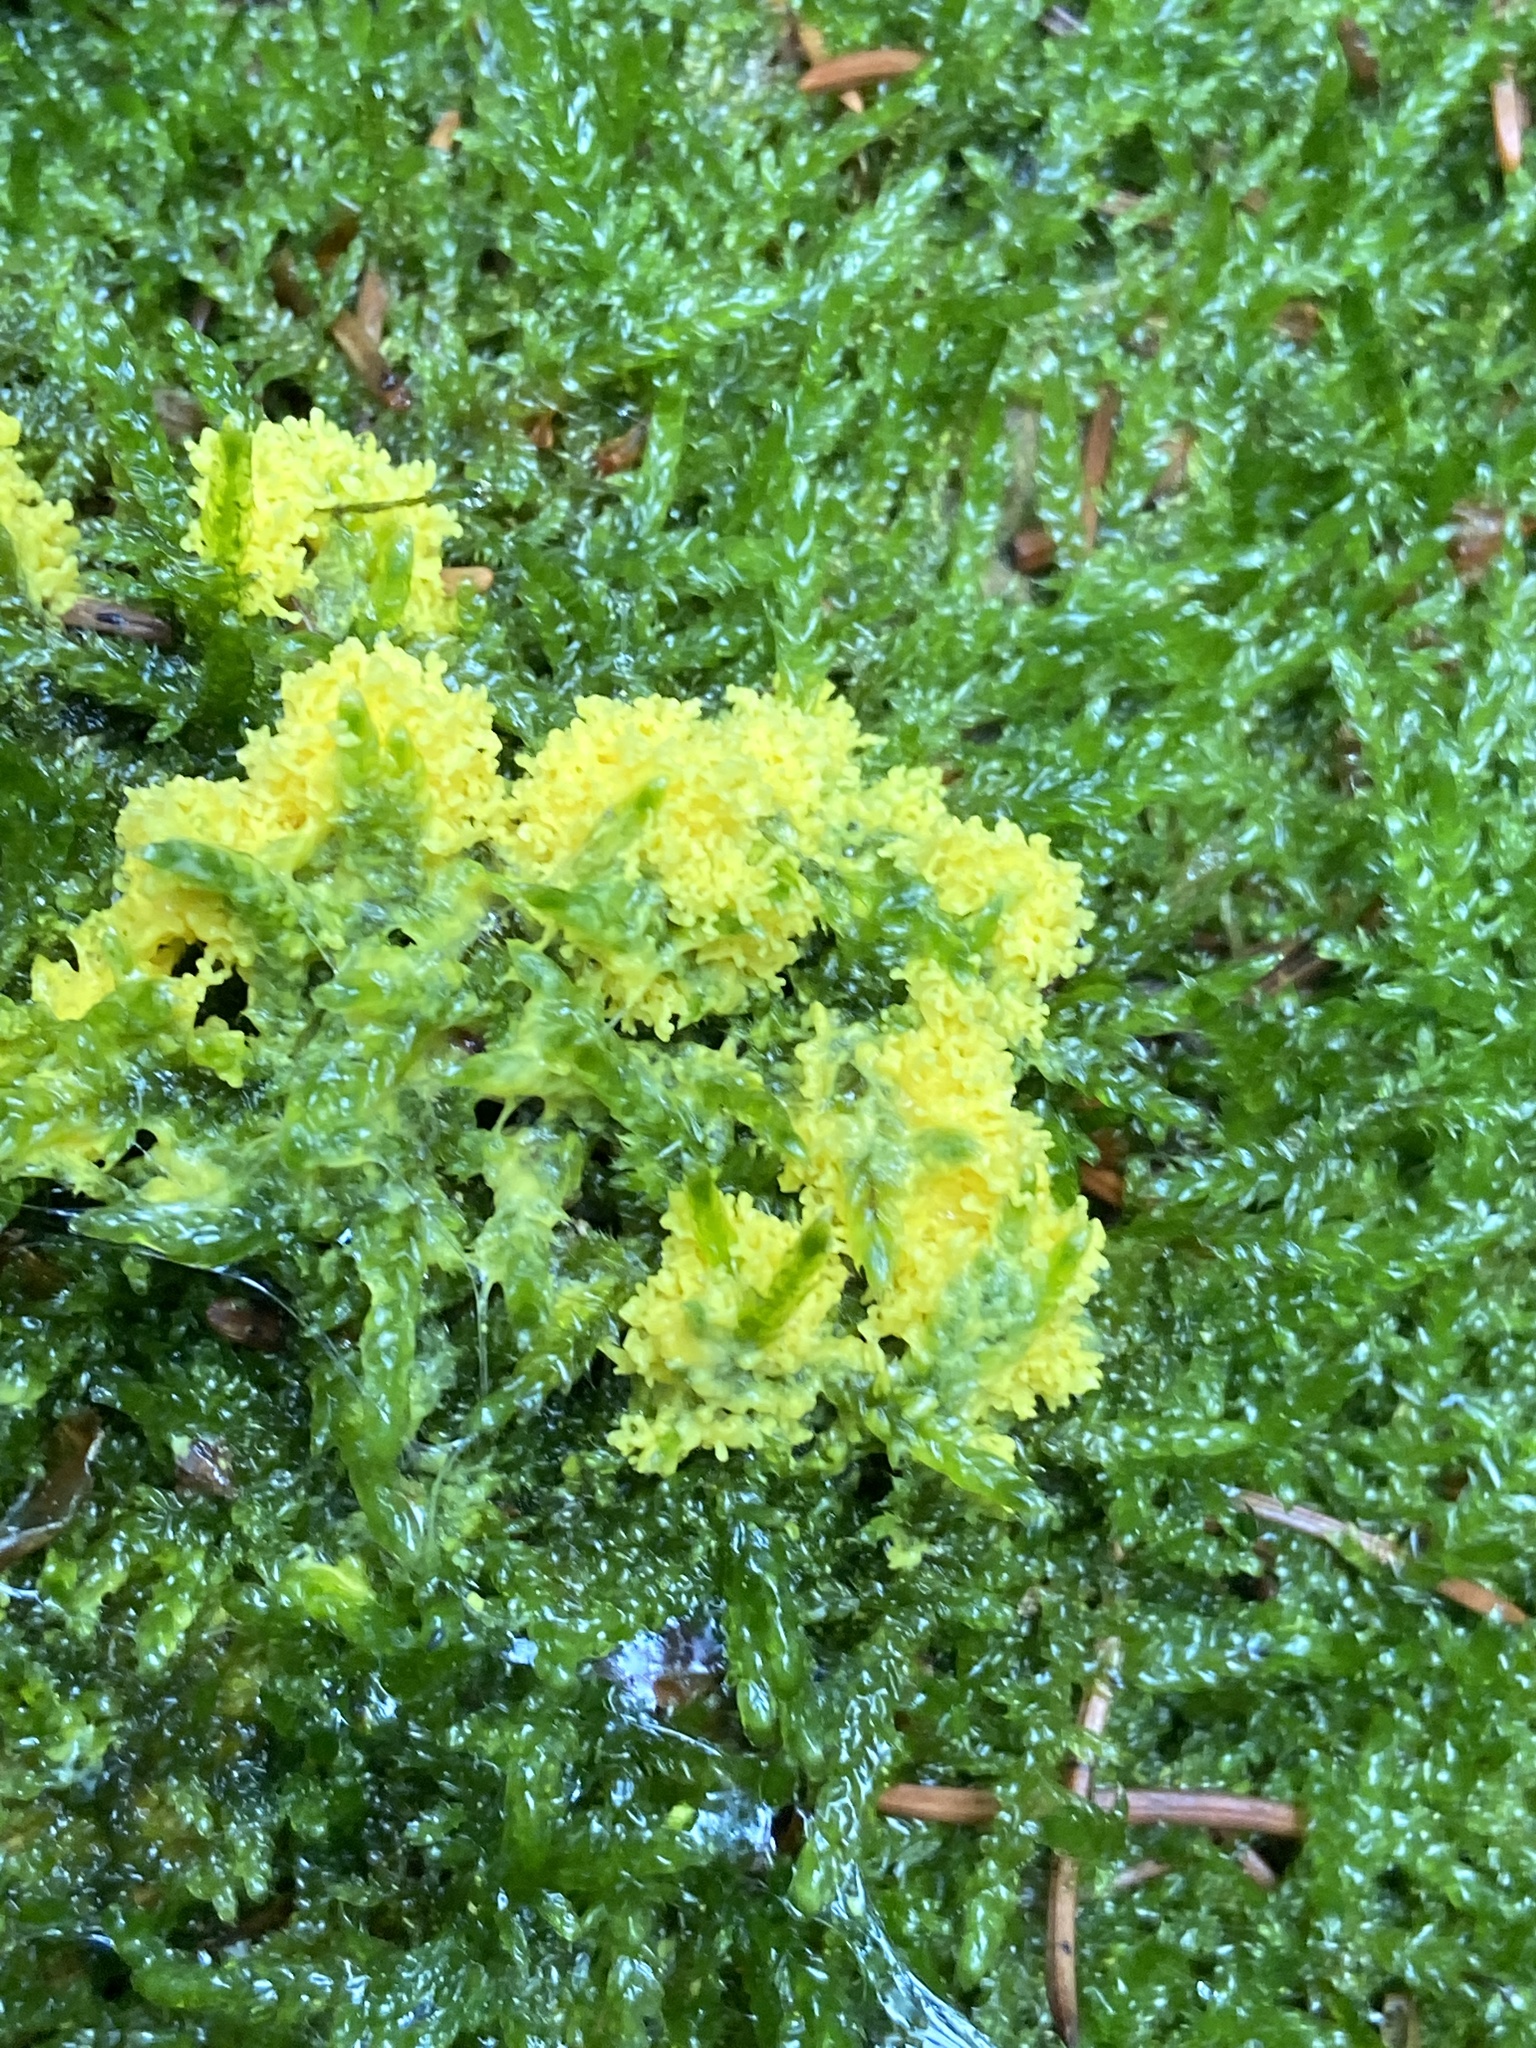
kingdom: Protozoa
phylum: Mycetozoa
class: Myxomycetes
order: Physarales
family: Physaraceae
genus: Fuligo
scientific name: Fuligo septica
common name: Dog vomit slime mold
